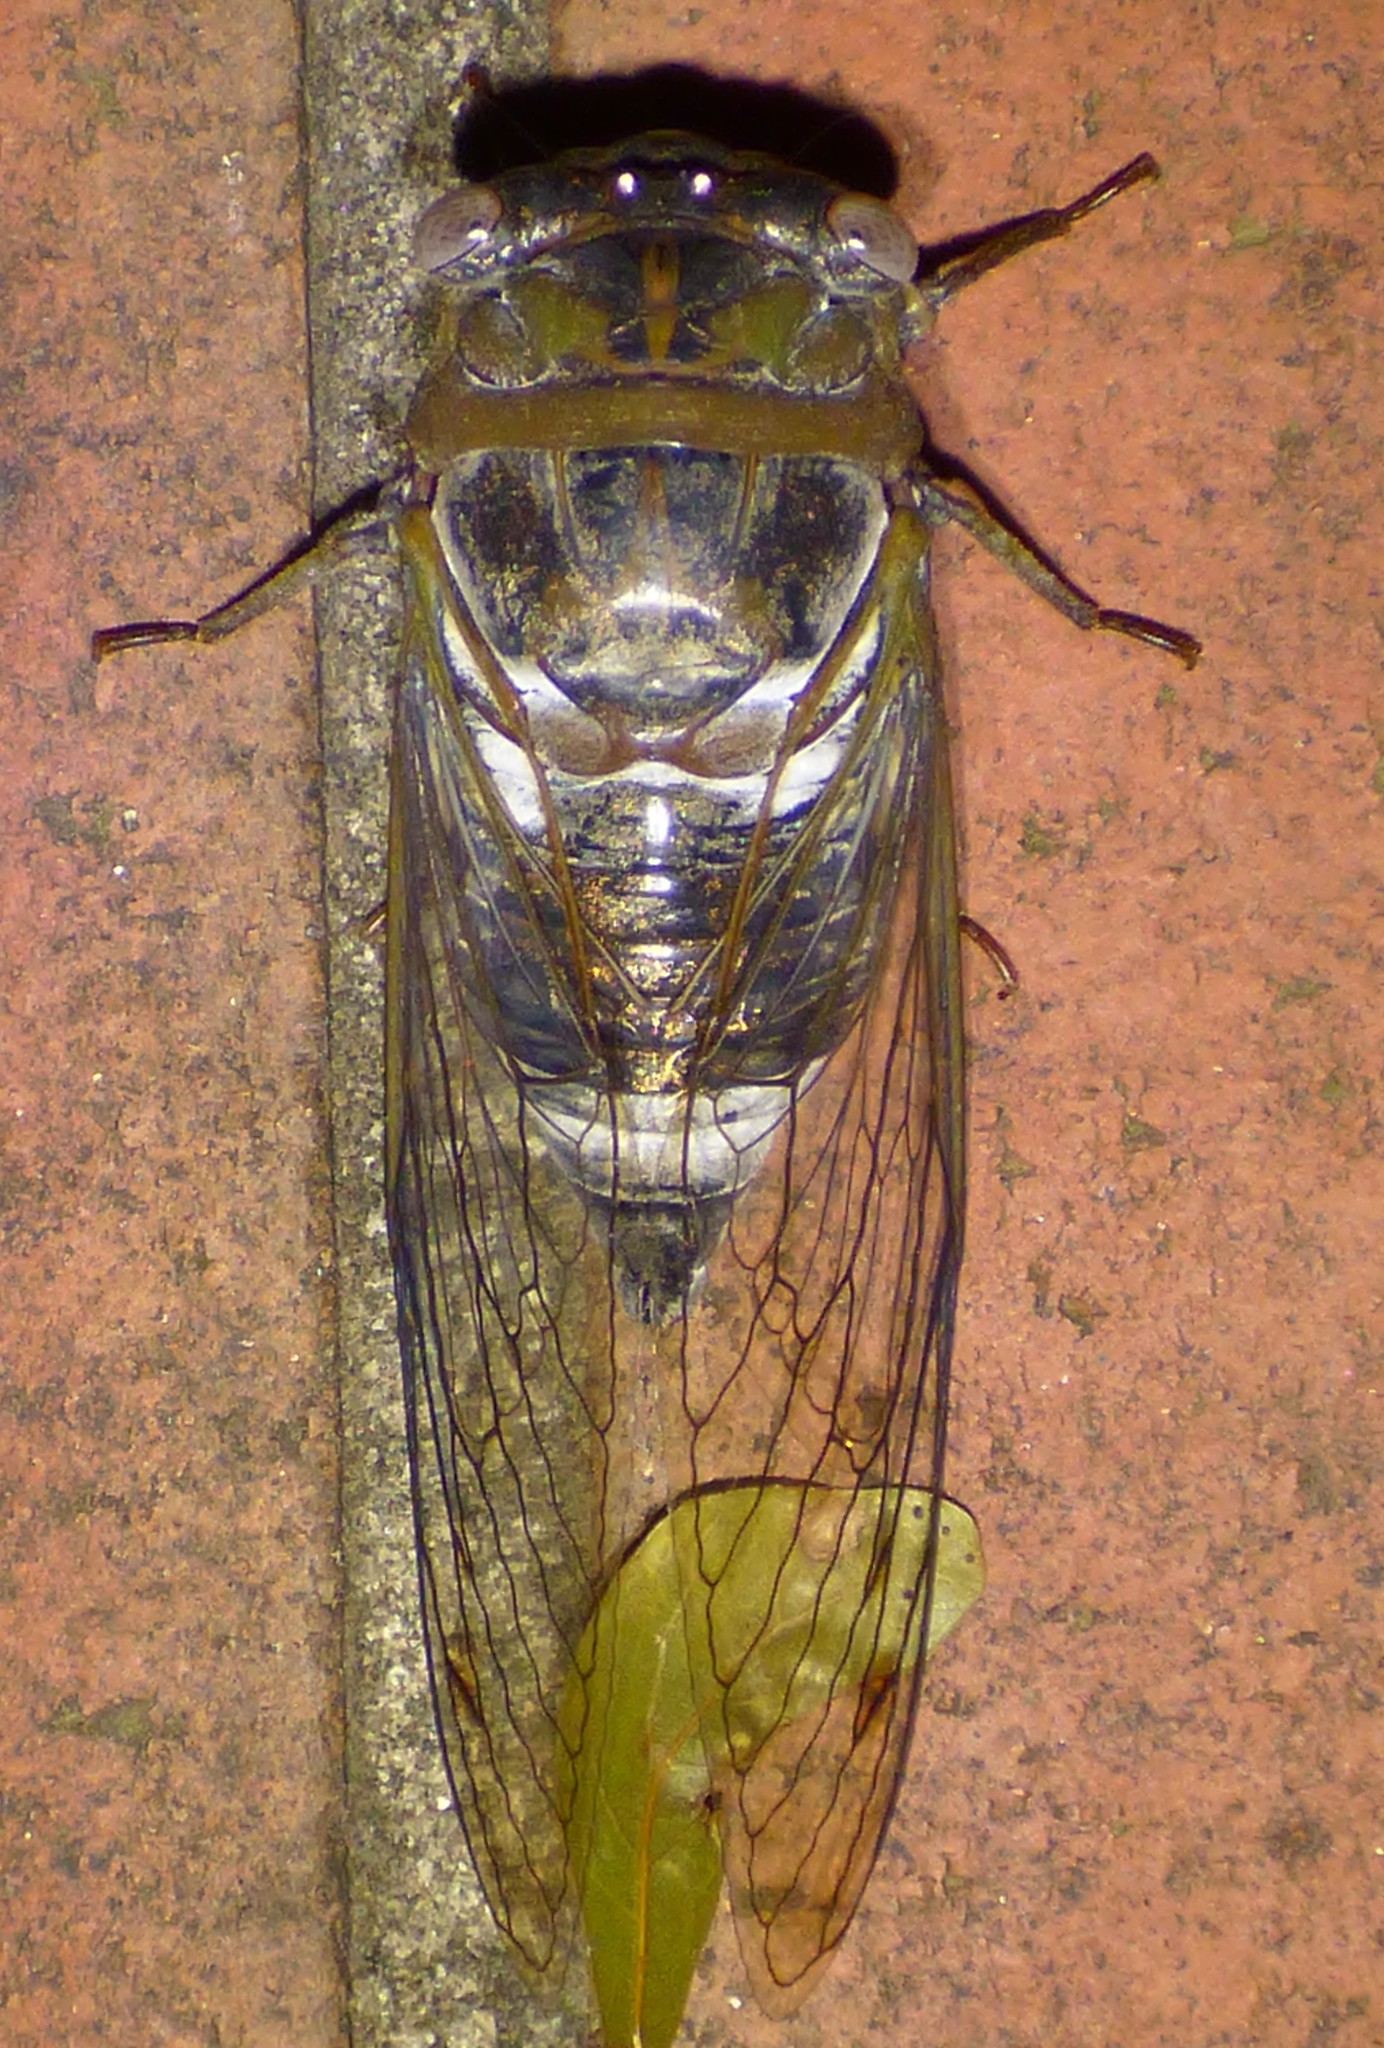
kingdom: Animalia
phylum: Arthropoda
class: Insecta
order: Hemiptera
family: Cicadidae
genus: Diceroprocta
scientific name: Diceroprocta grossa
